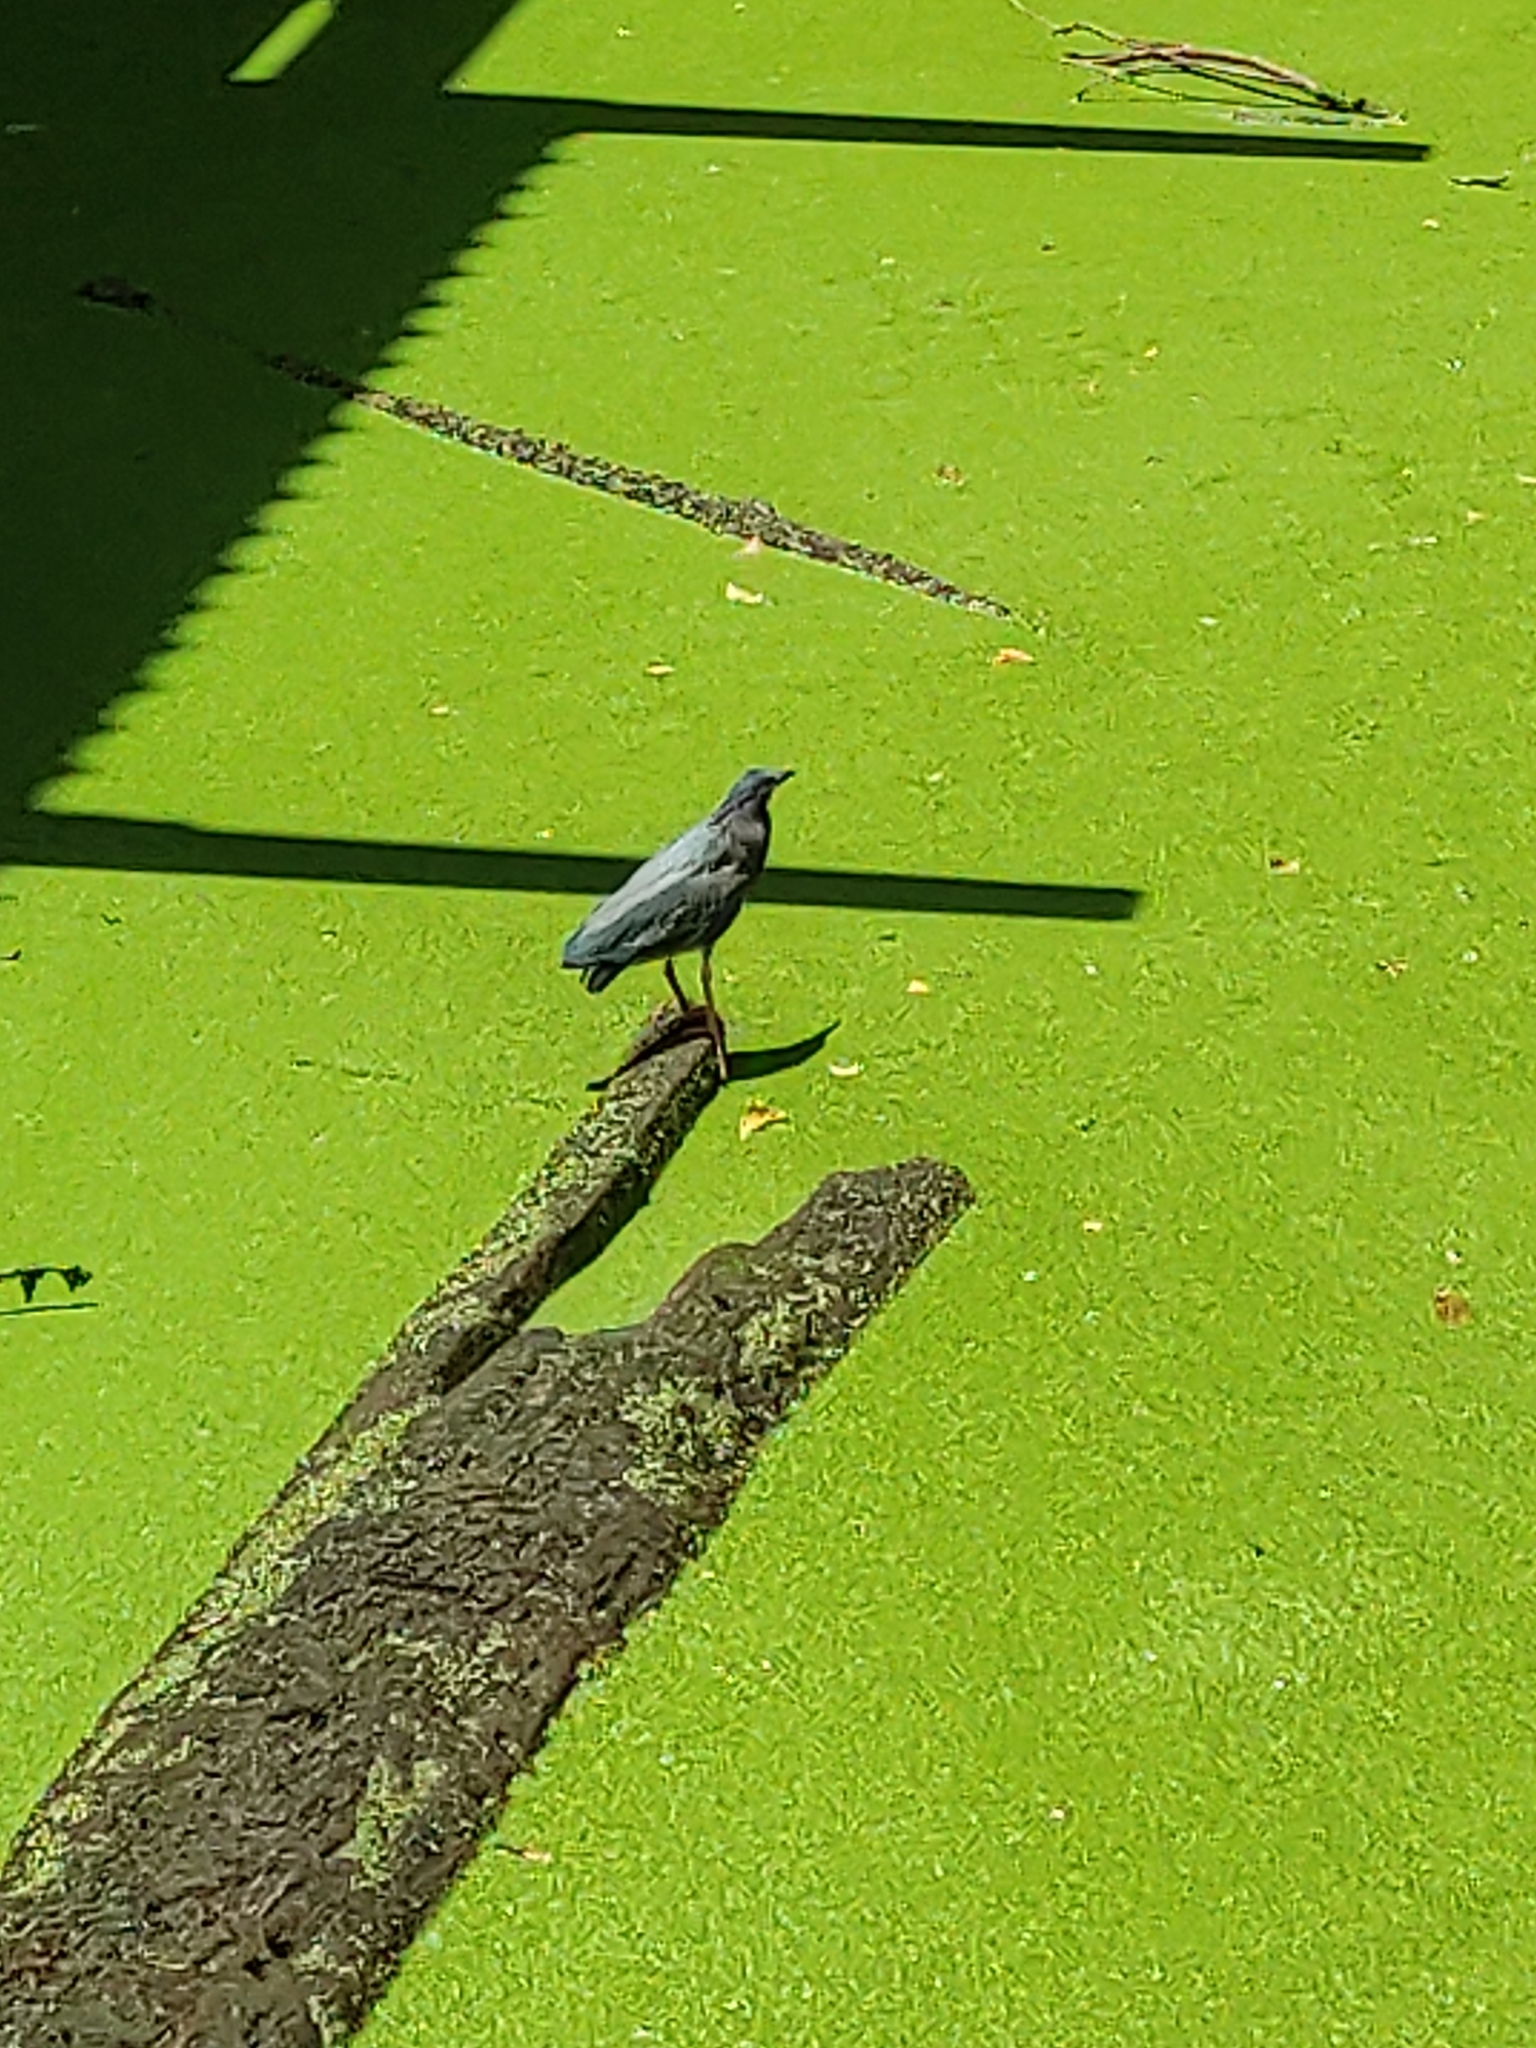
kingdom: Animalia
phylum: Chordata
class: Aves
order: Pelecaniformes
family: Ardeidae
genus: Butorides
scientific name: Butorides virescens
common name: Green heron
